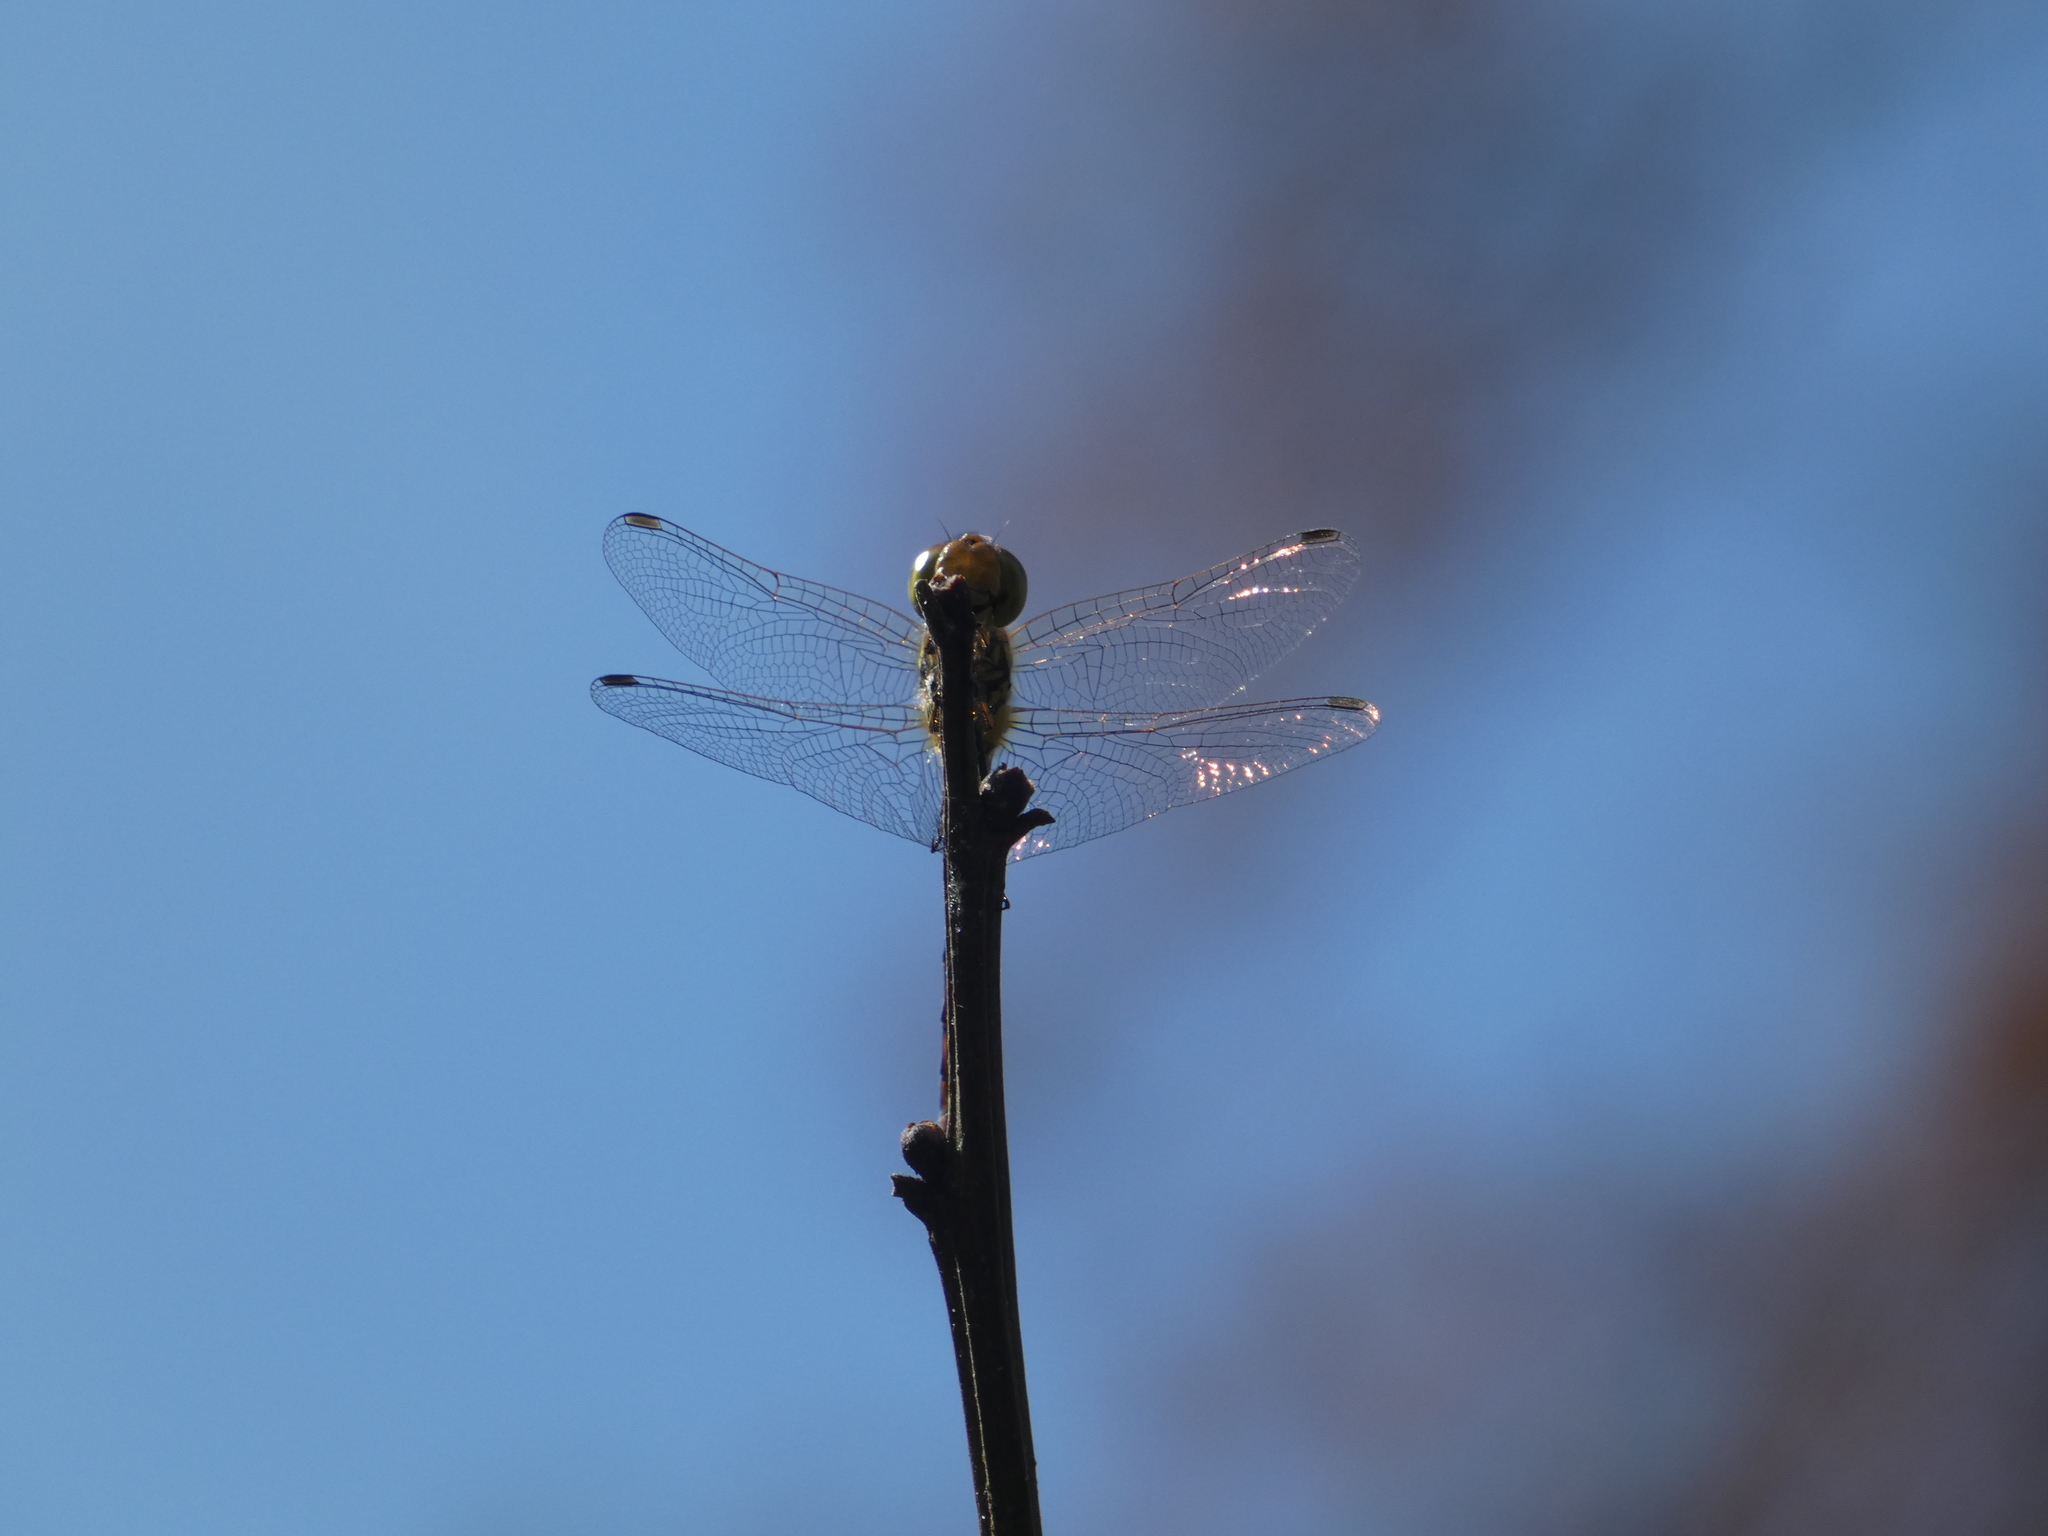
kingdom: Animalia
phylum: Arthropoda
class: Insecta
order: Odonata
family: Libellulidae
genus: Sympetrum
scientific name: Sympetrum striolatum
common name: Common darter
